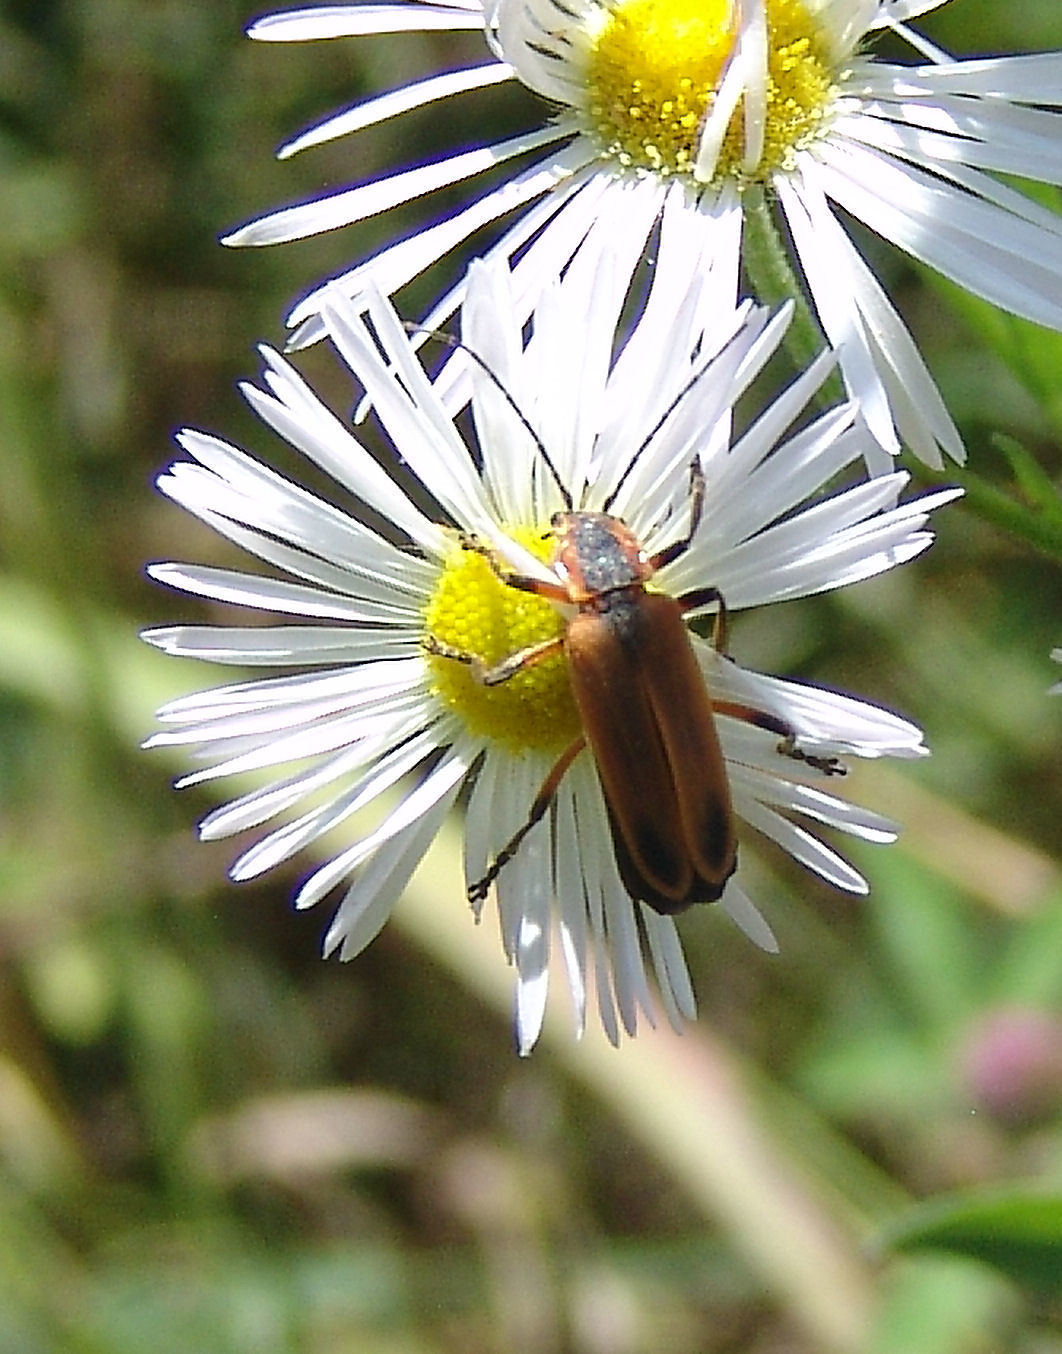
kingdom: Animalia
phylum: Arthropoda
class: Insecta
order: Coleoptera
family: Cantharidae
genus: Chauliognathus
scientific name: Chauliognathus marginatus
